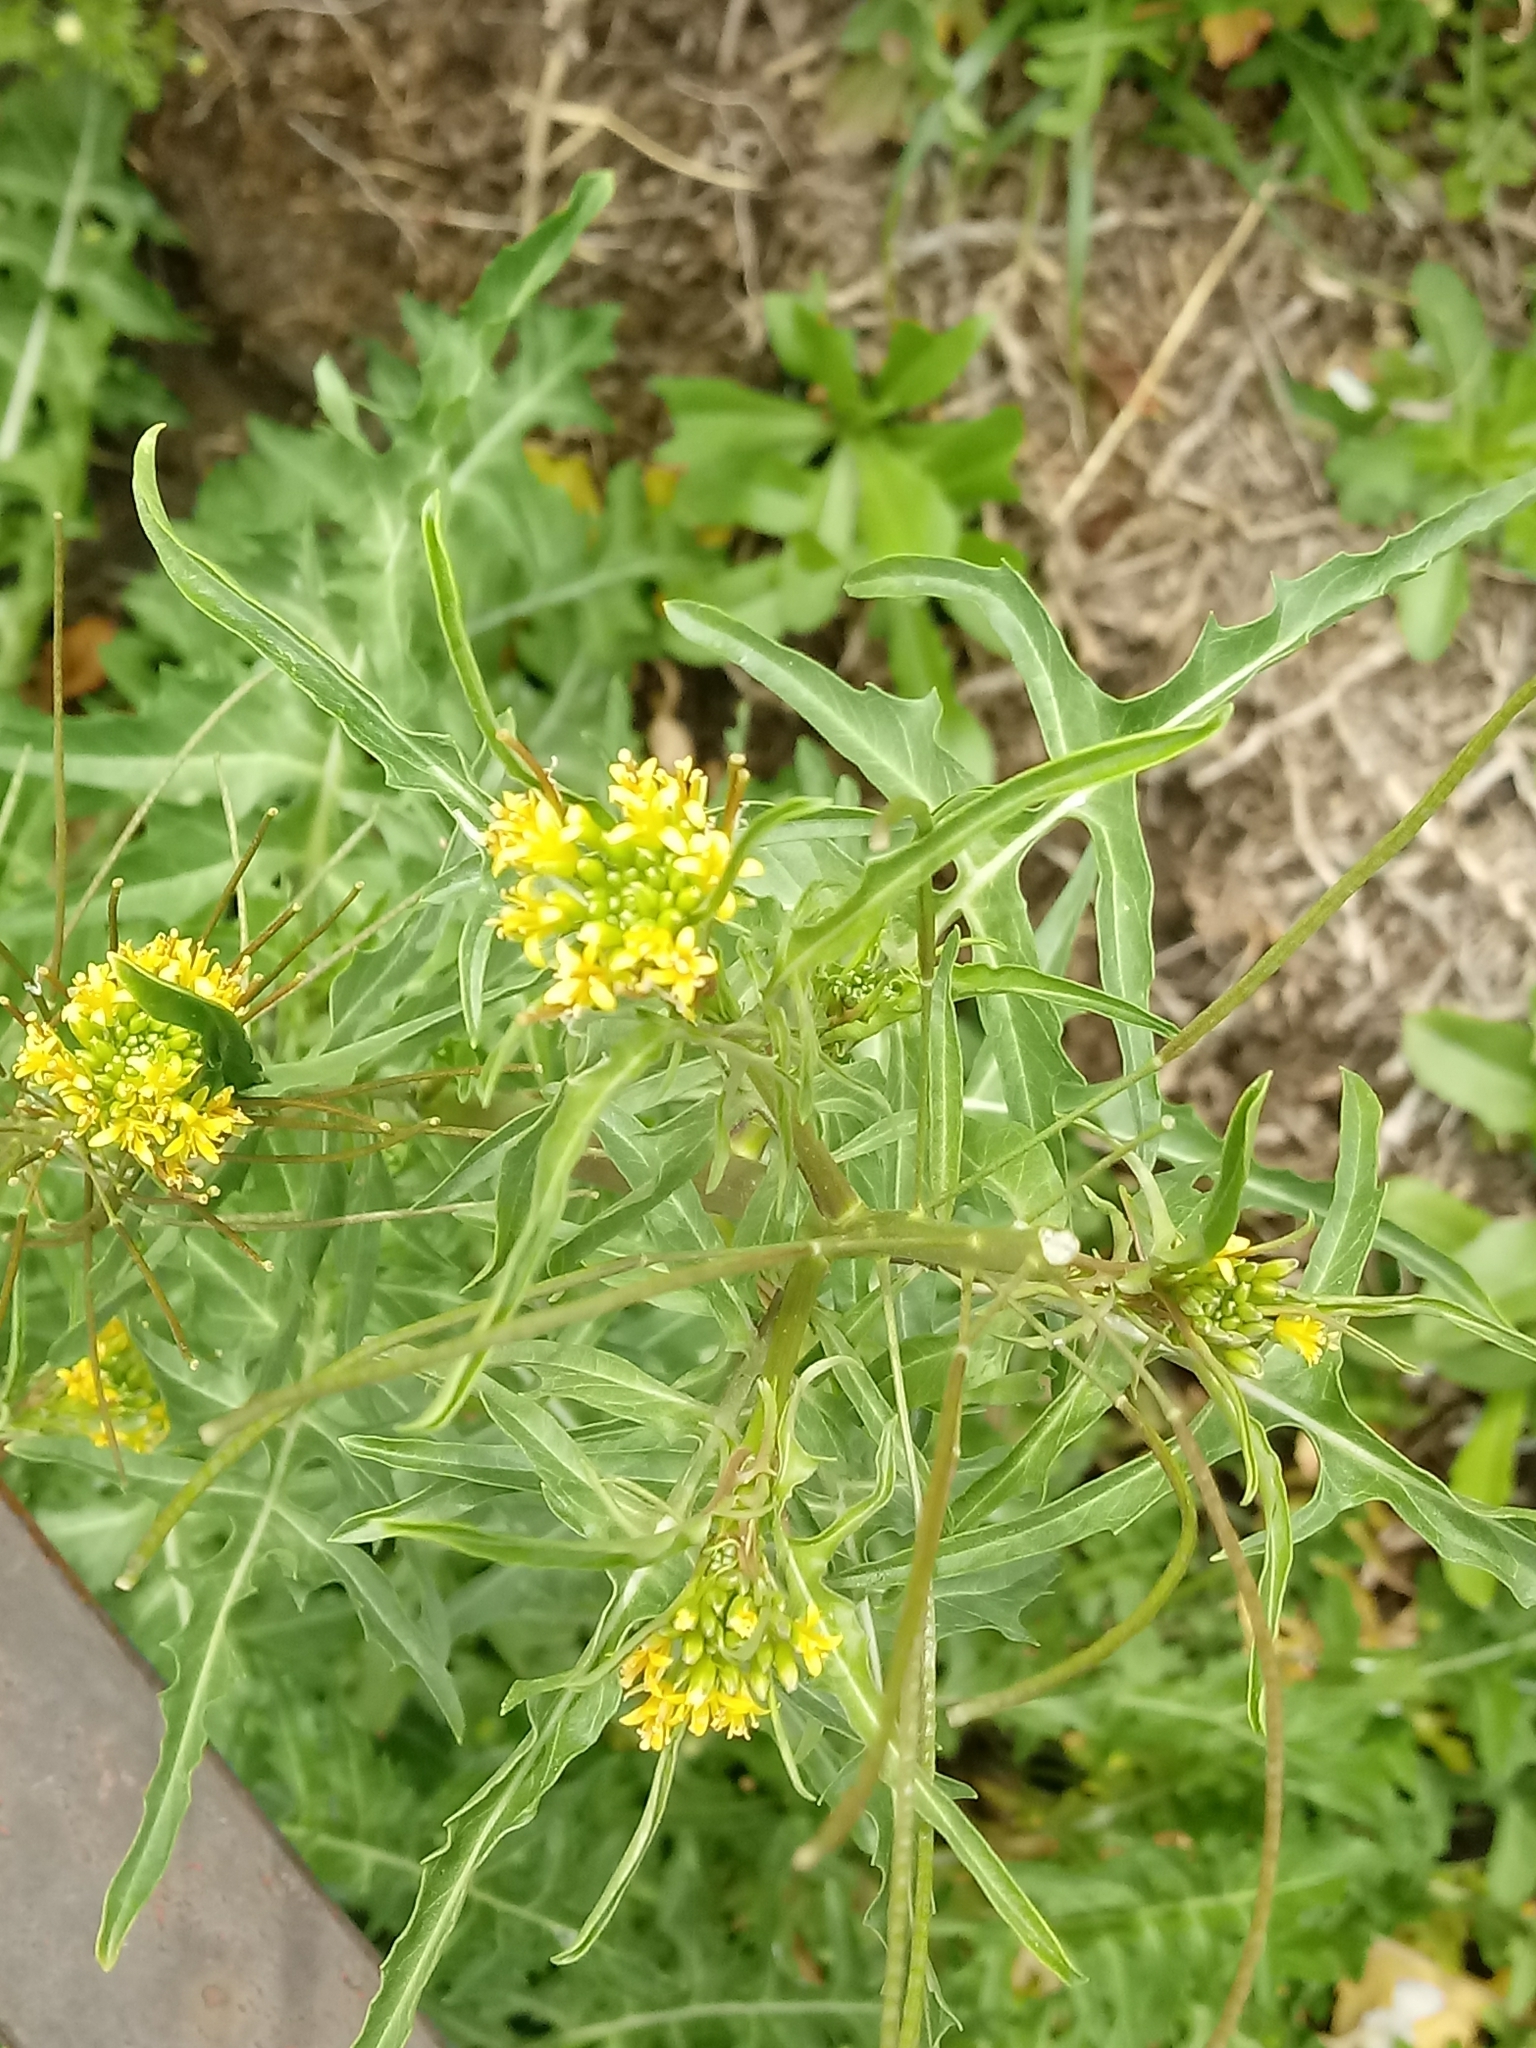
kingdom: Plantae
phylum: Tracheophyta
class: Magnoliopsida
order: Brassicales
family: Brassicaceae
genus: Sisymbrium
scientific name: Sisymbrium irio
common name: London rocket
